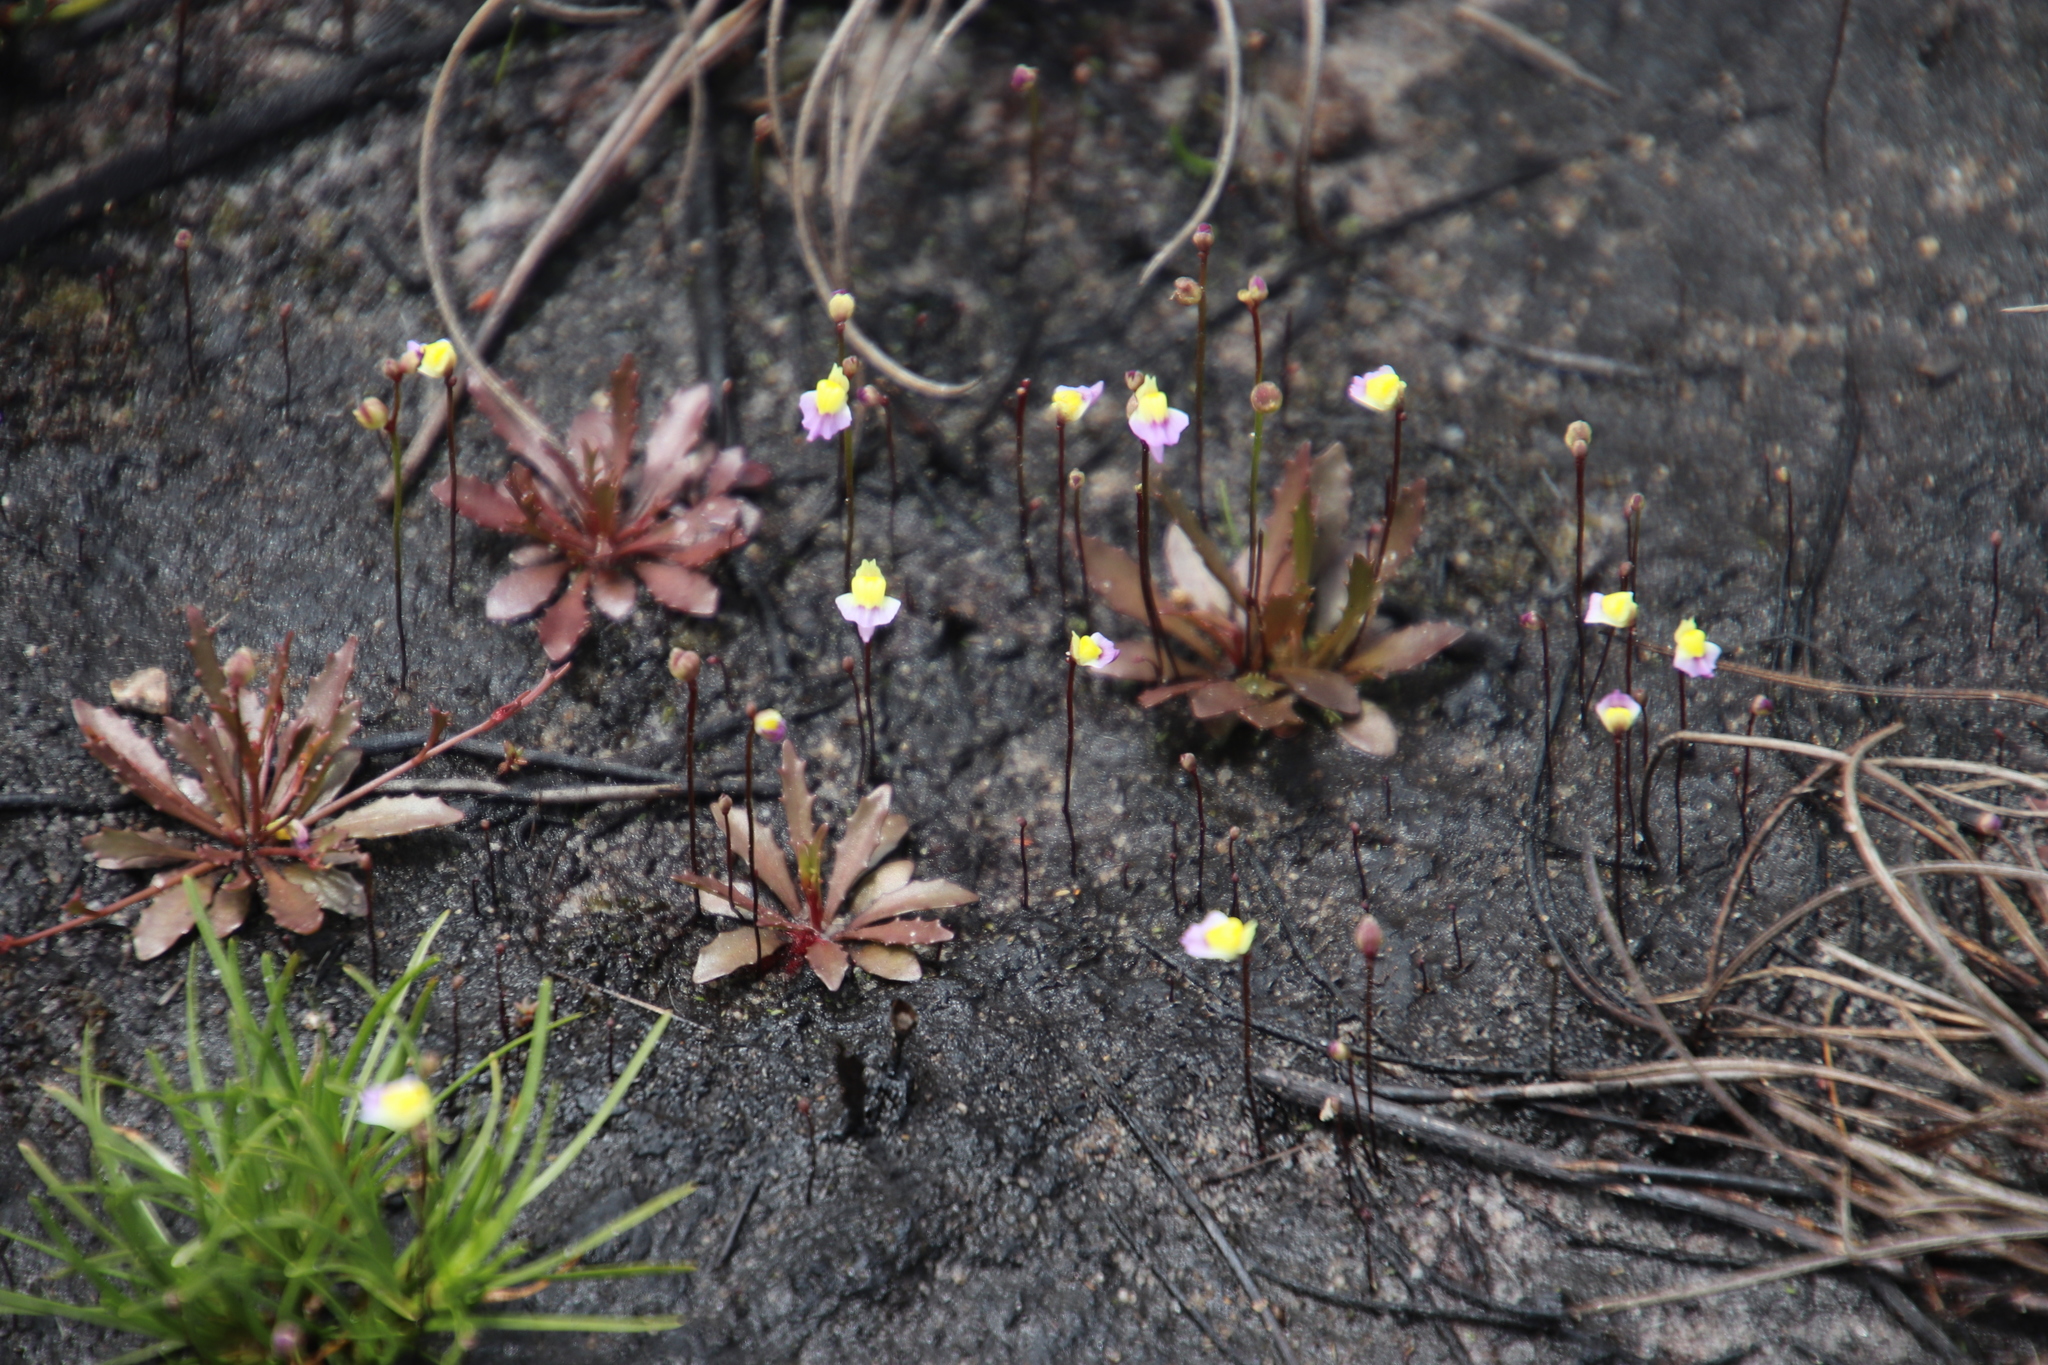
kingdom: Plantae
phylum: Tracheophyta
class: Magnoliopsida
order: Lamiales
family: Lentibulariaceae
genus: Utricularia
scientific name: Utricularia bisquamata
